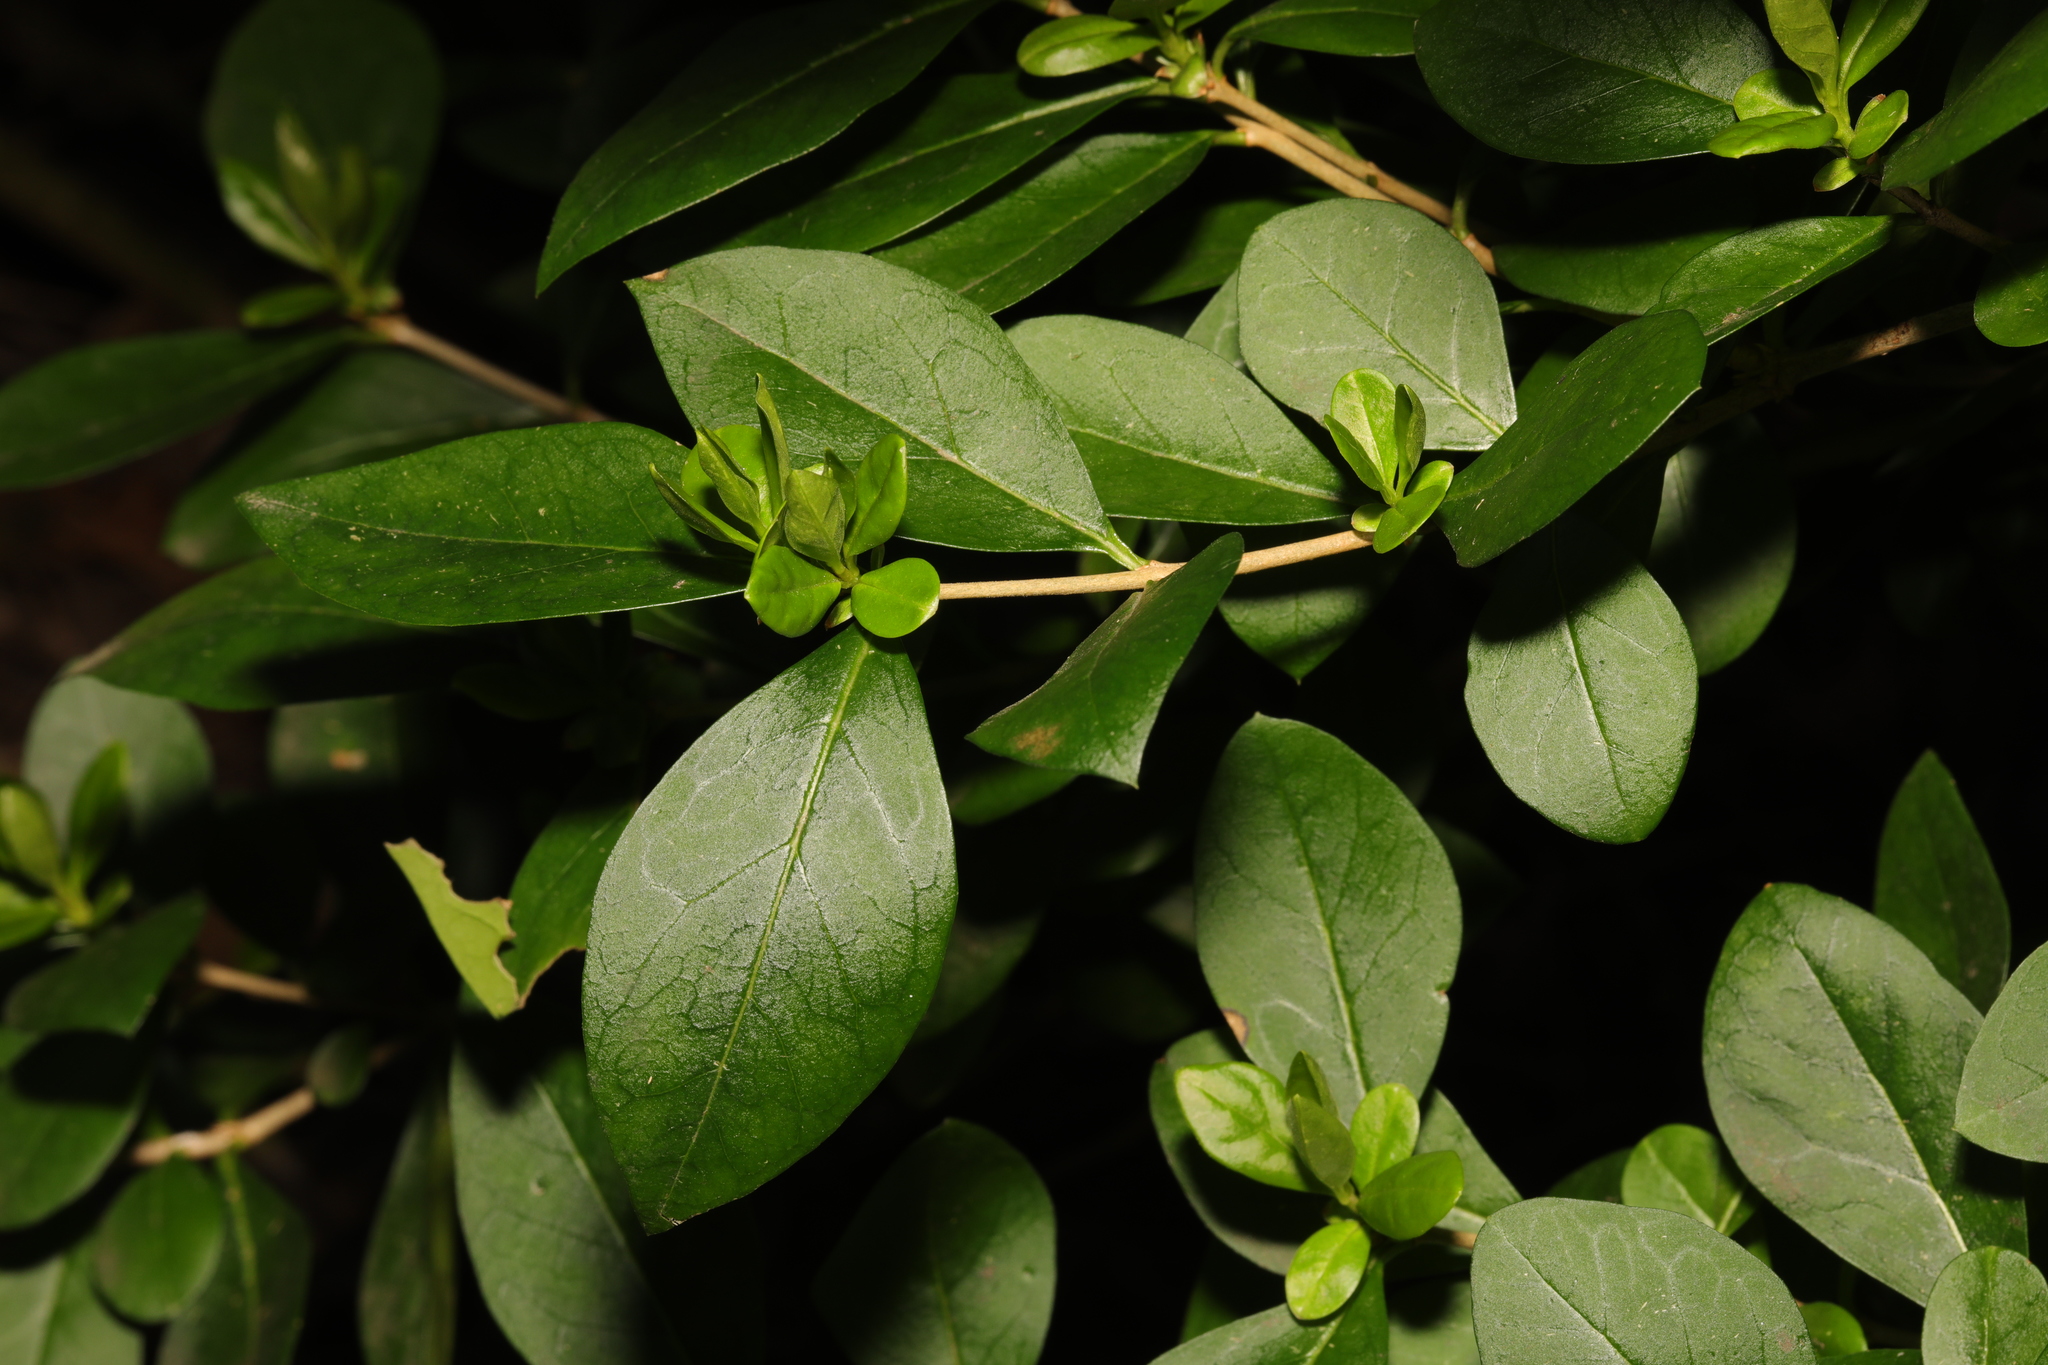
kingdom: Plantae
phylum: Tracheophyta
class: Magnoliopsida
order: Lamiales
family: Oleaceae
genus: Ligustrum
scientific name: Ligustrum ovalifolium
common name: California privet
